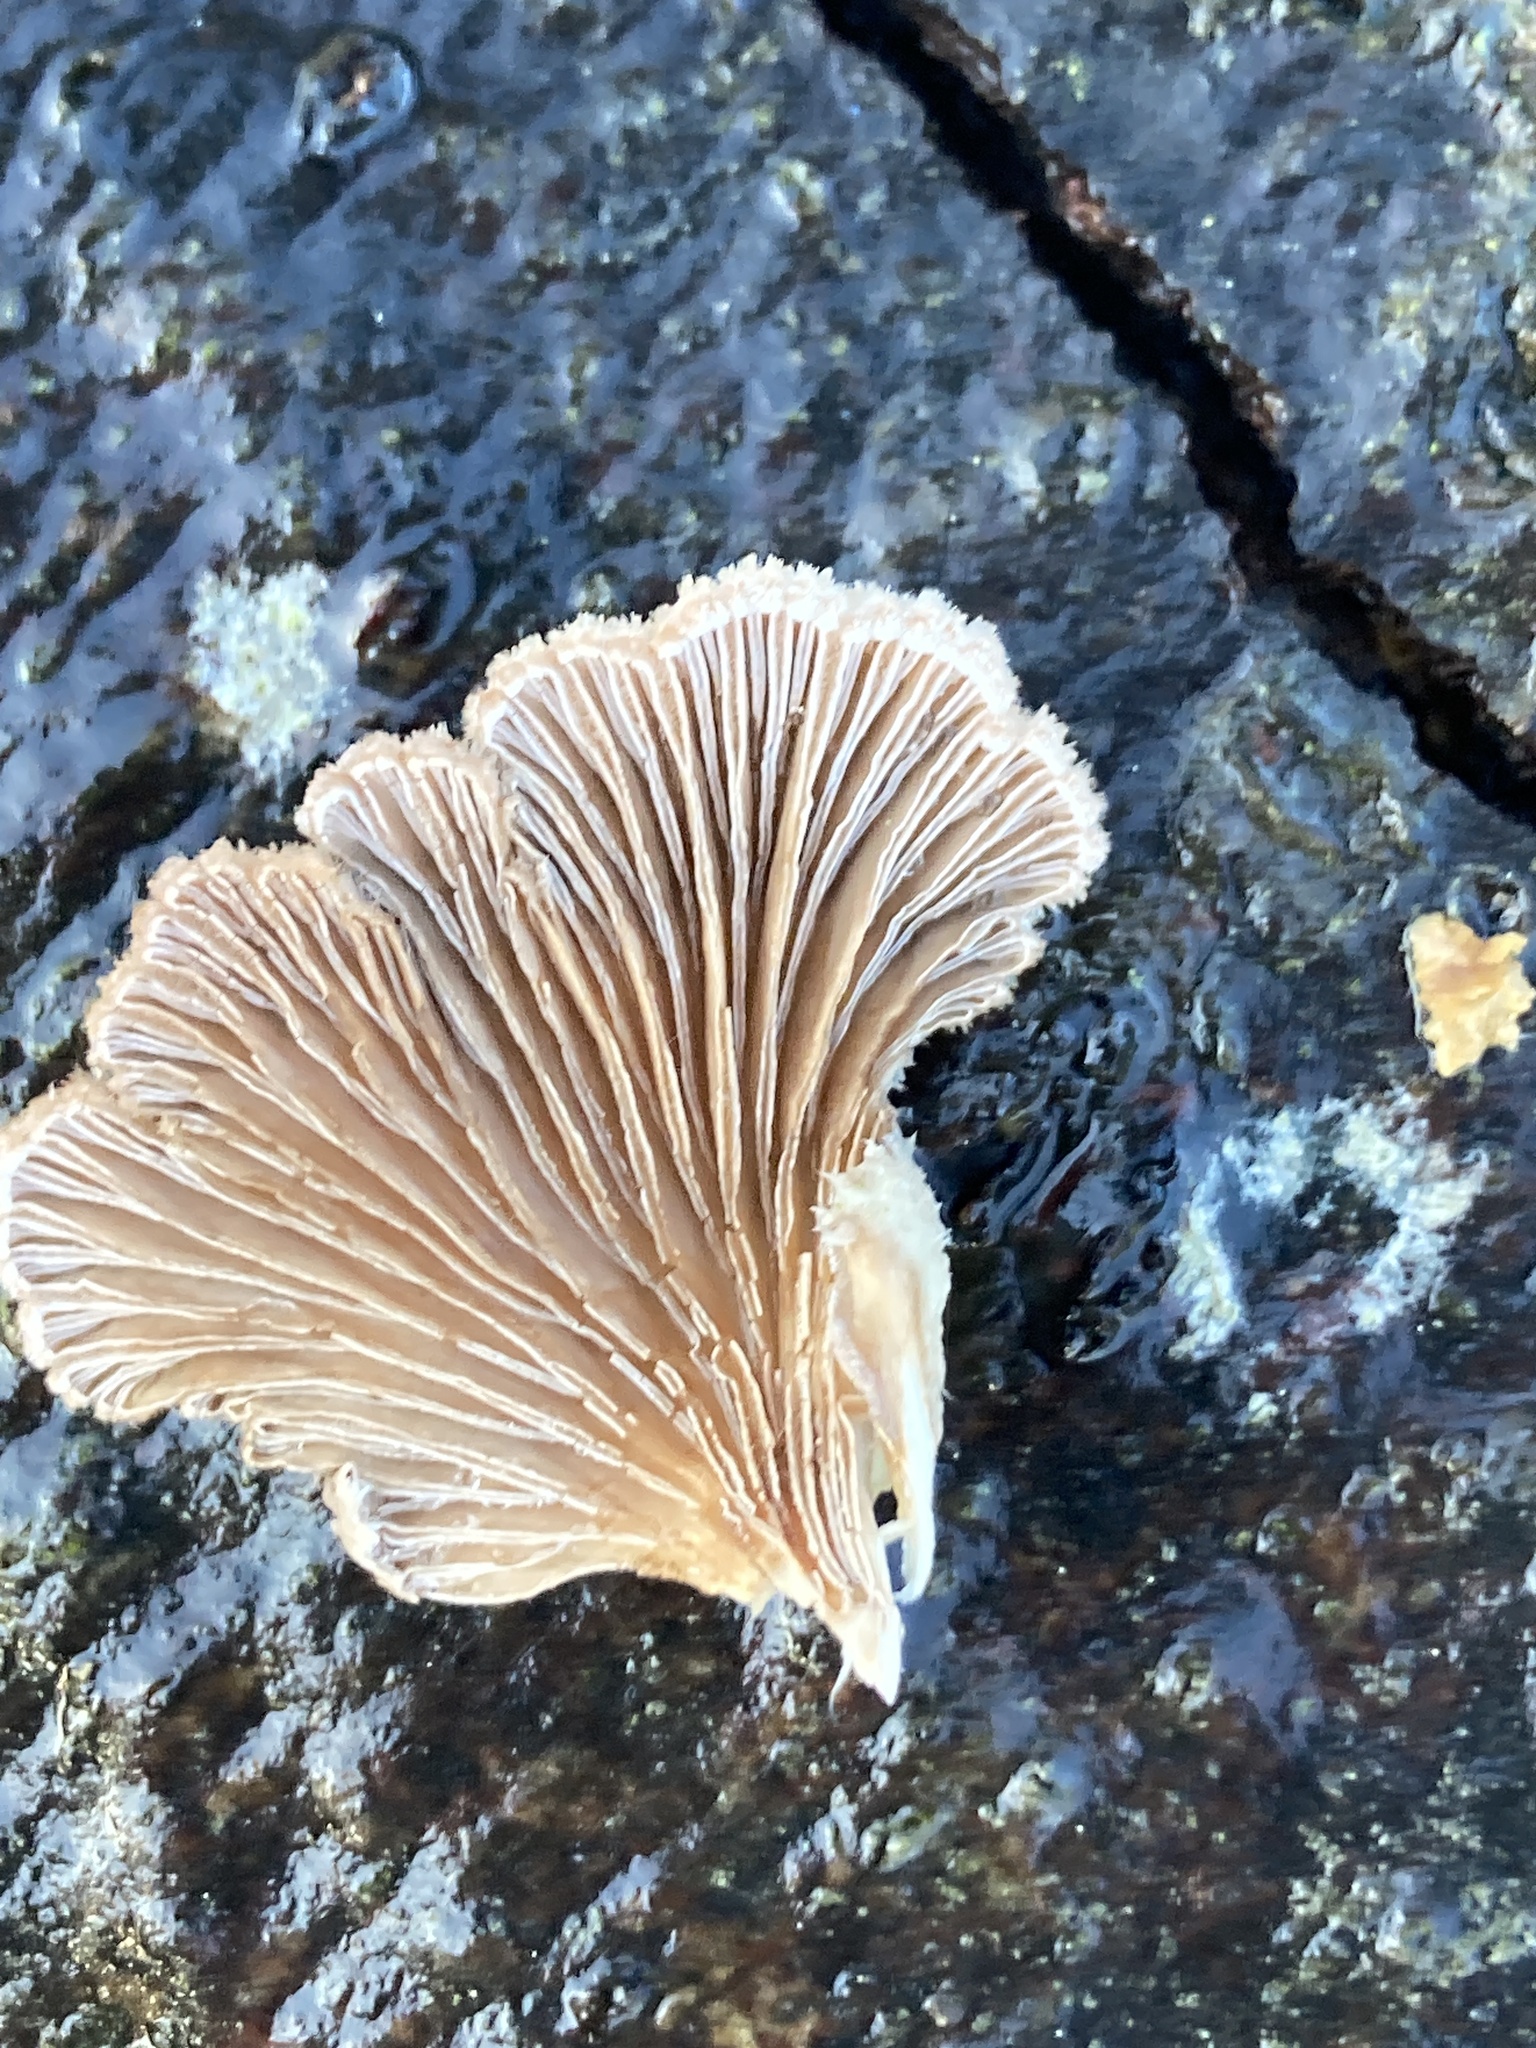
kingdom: Fungi
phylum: Basidiomycota
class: Agaricomycetes
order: Agaricales
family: Schizophyllaceae
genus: Schizophyllum
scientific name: Schizophyllum commune
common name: Common porecrust
